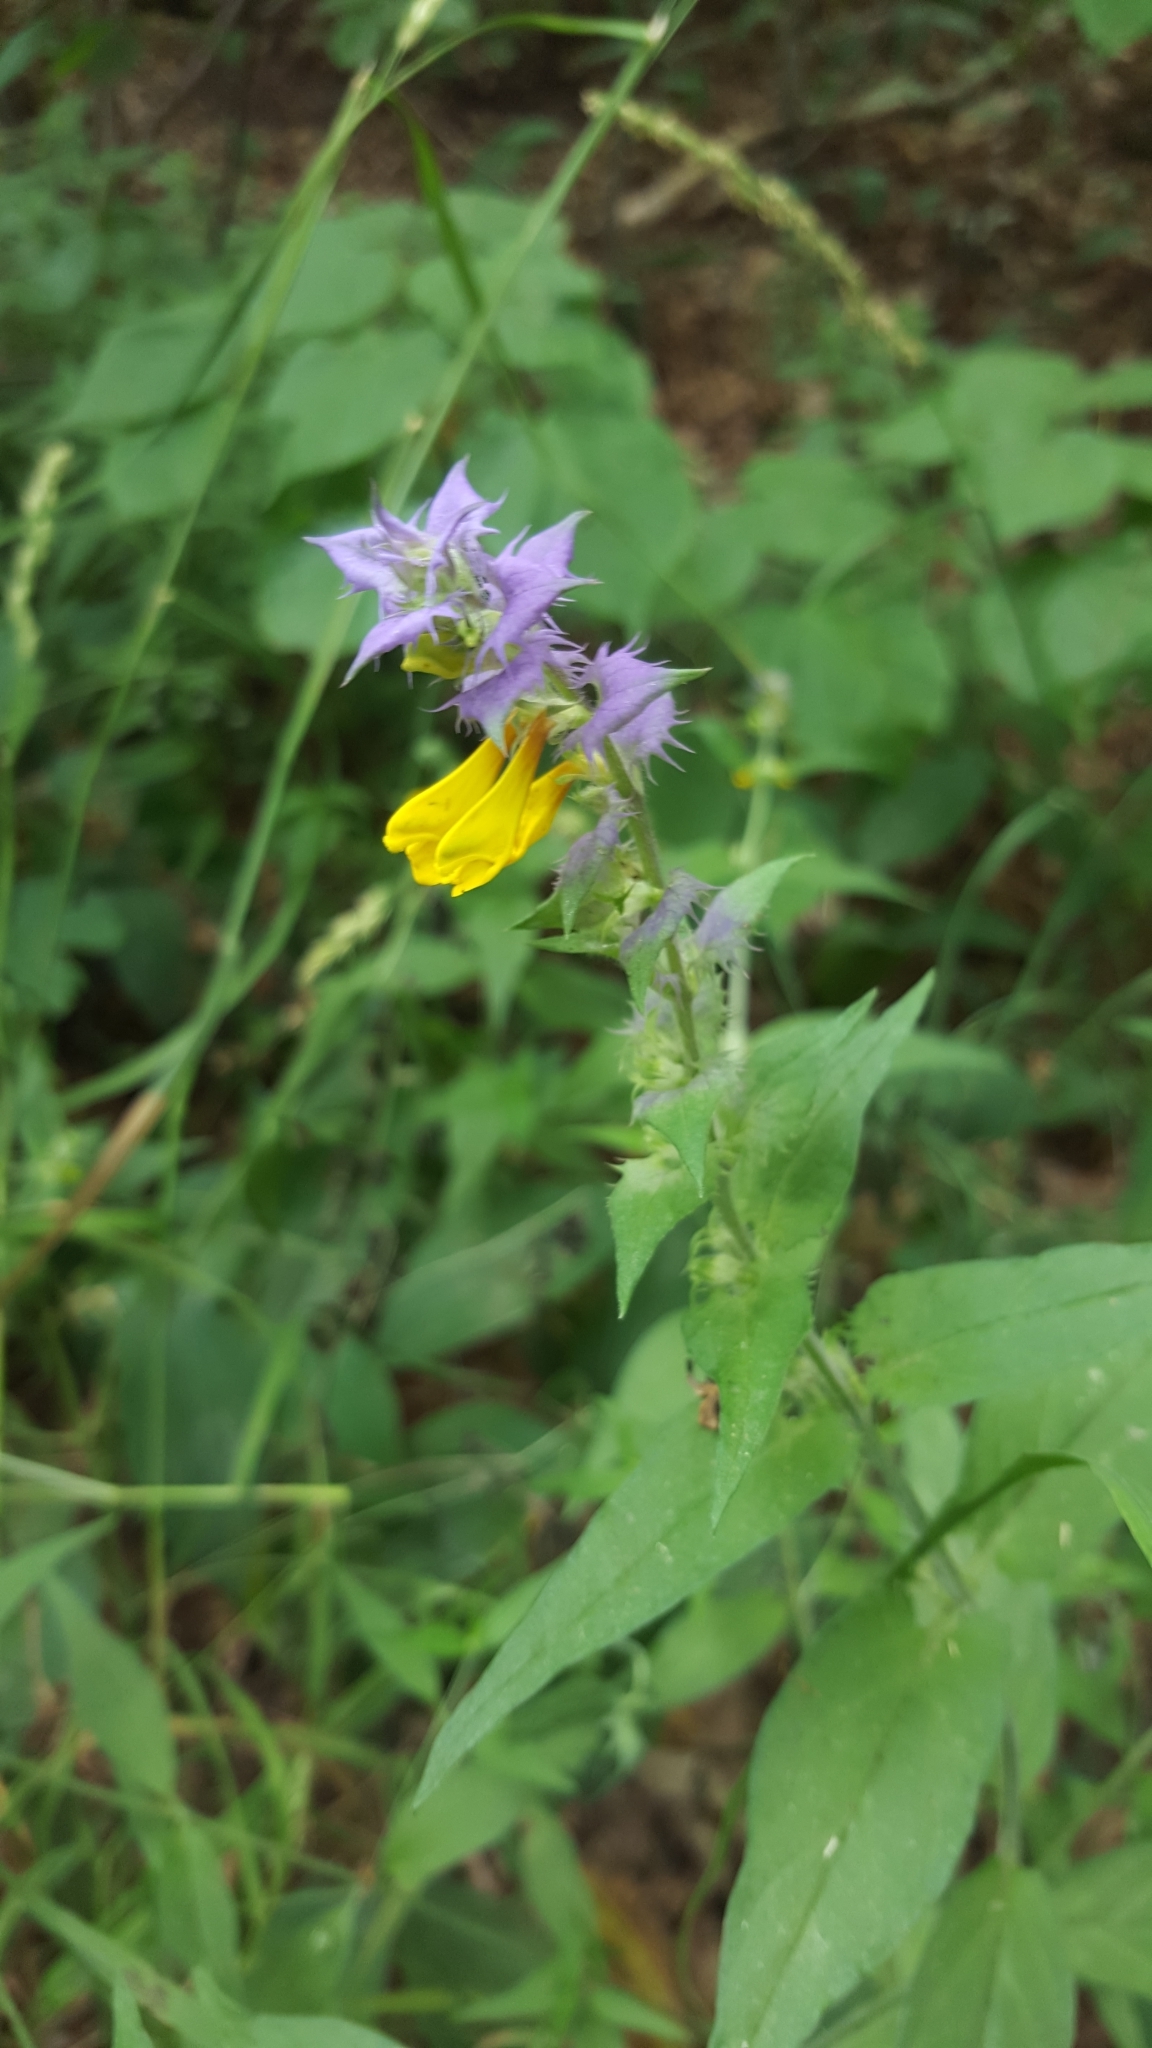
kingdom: Plantae
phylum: Tracheophyta
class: Magnoliopsida
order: Lamiales
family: Orobanchaceae
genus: Melampyrum
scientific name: Melampyrum nemorosum
